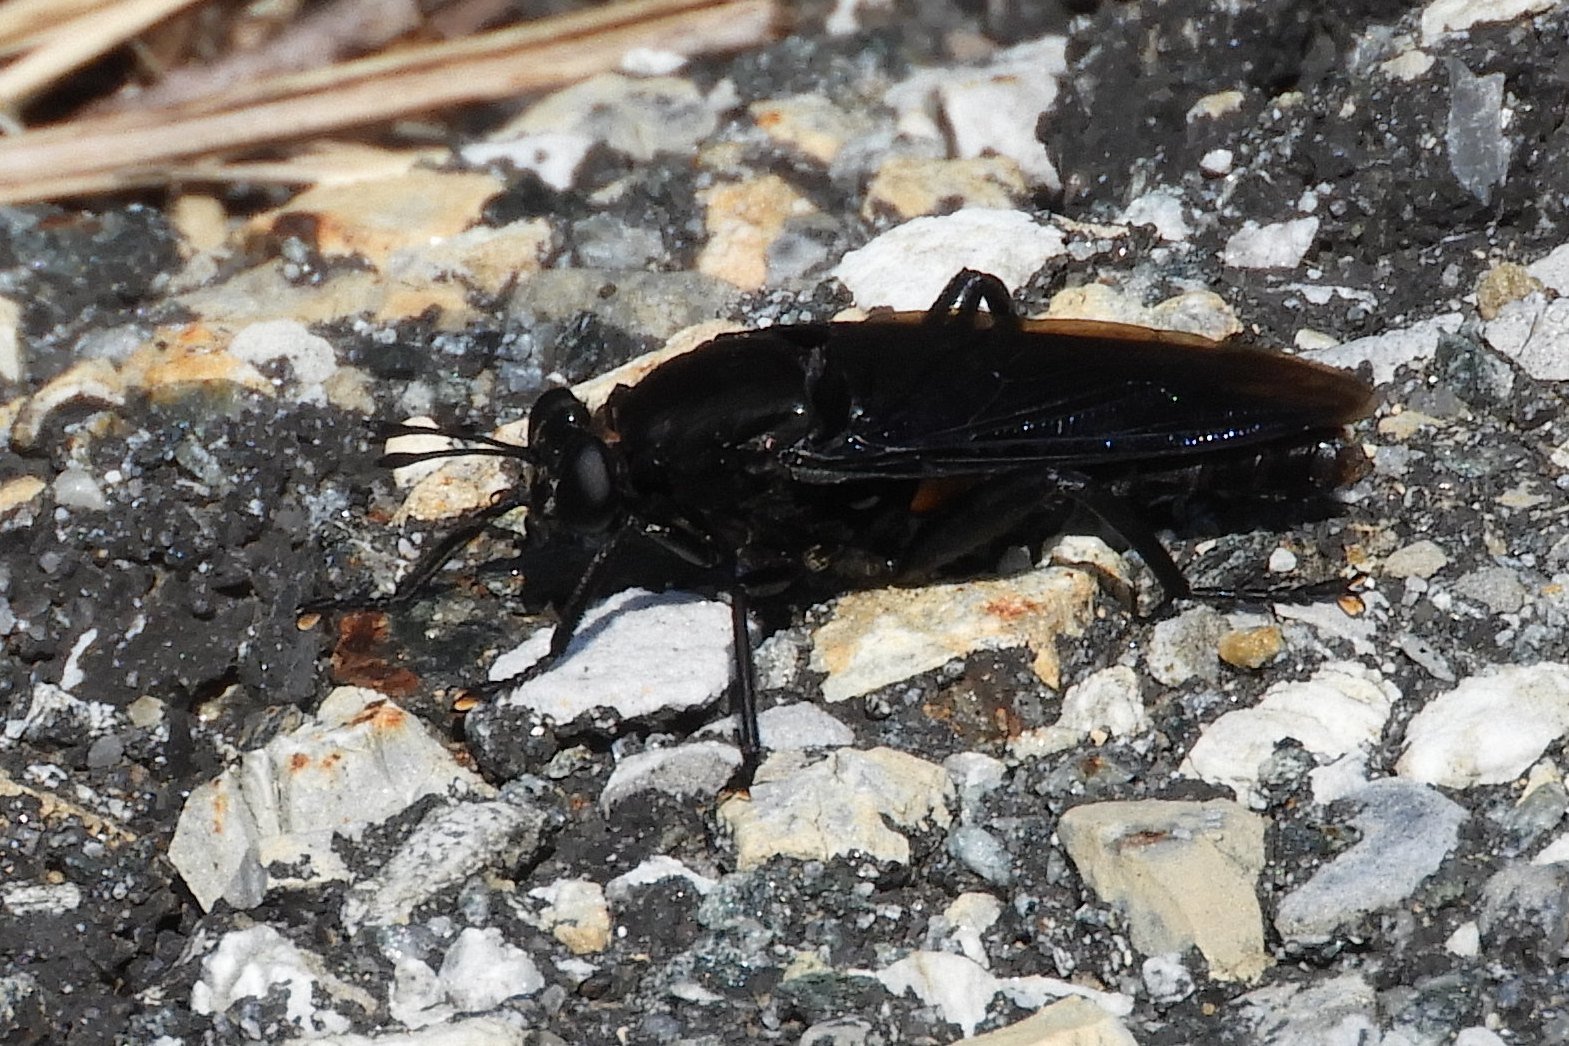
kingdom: Animalia
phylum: Arthropoda
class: Insecta
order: Diptera
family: Mydidae
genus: Mydas
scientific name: Mydas clavatus
